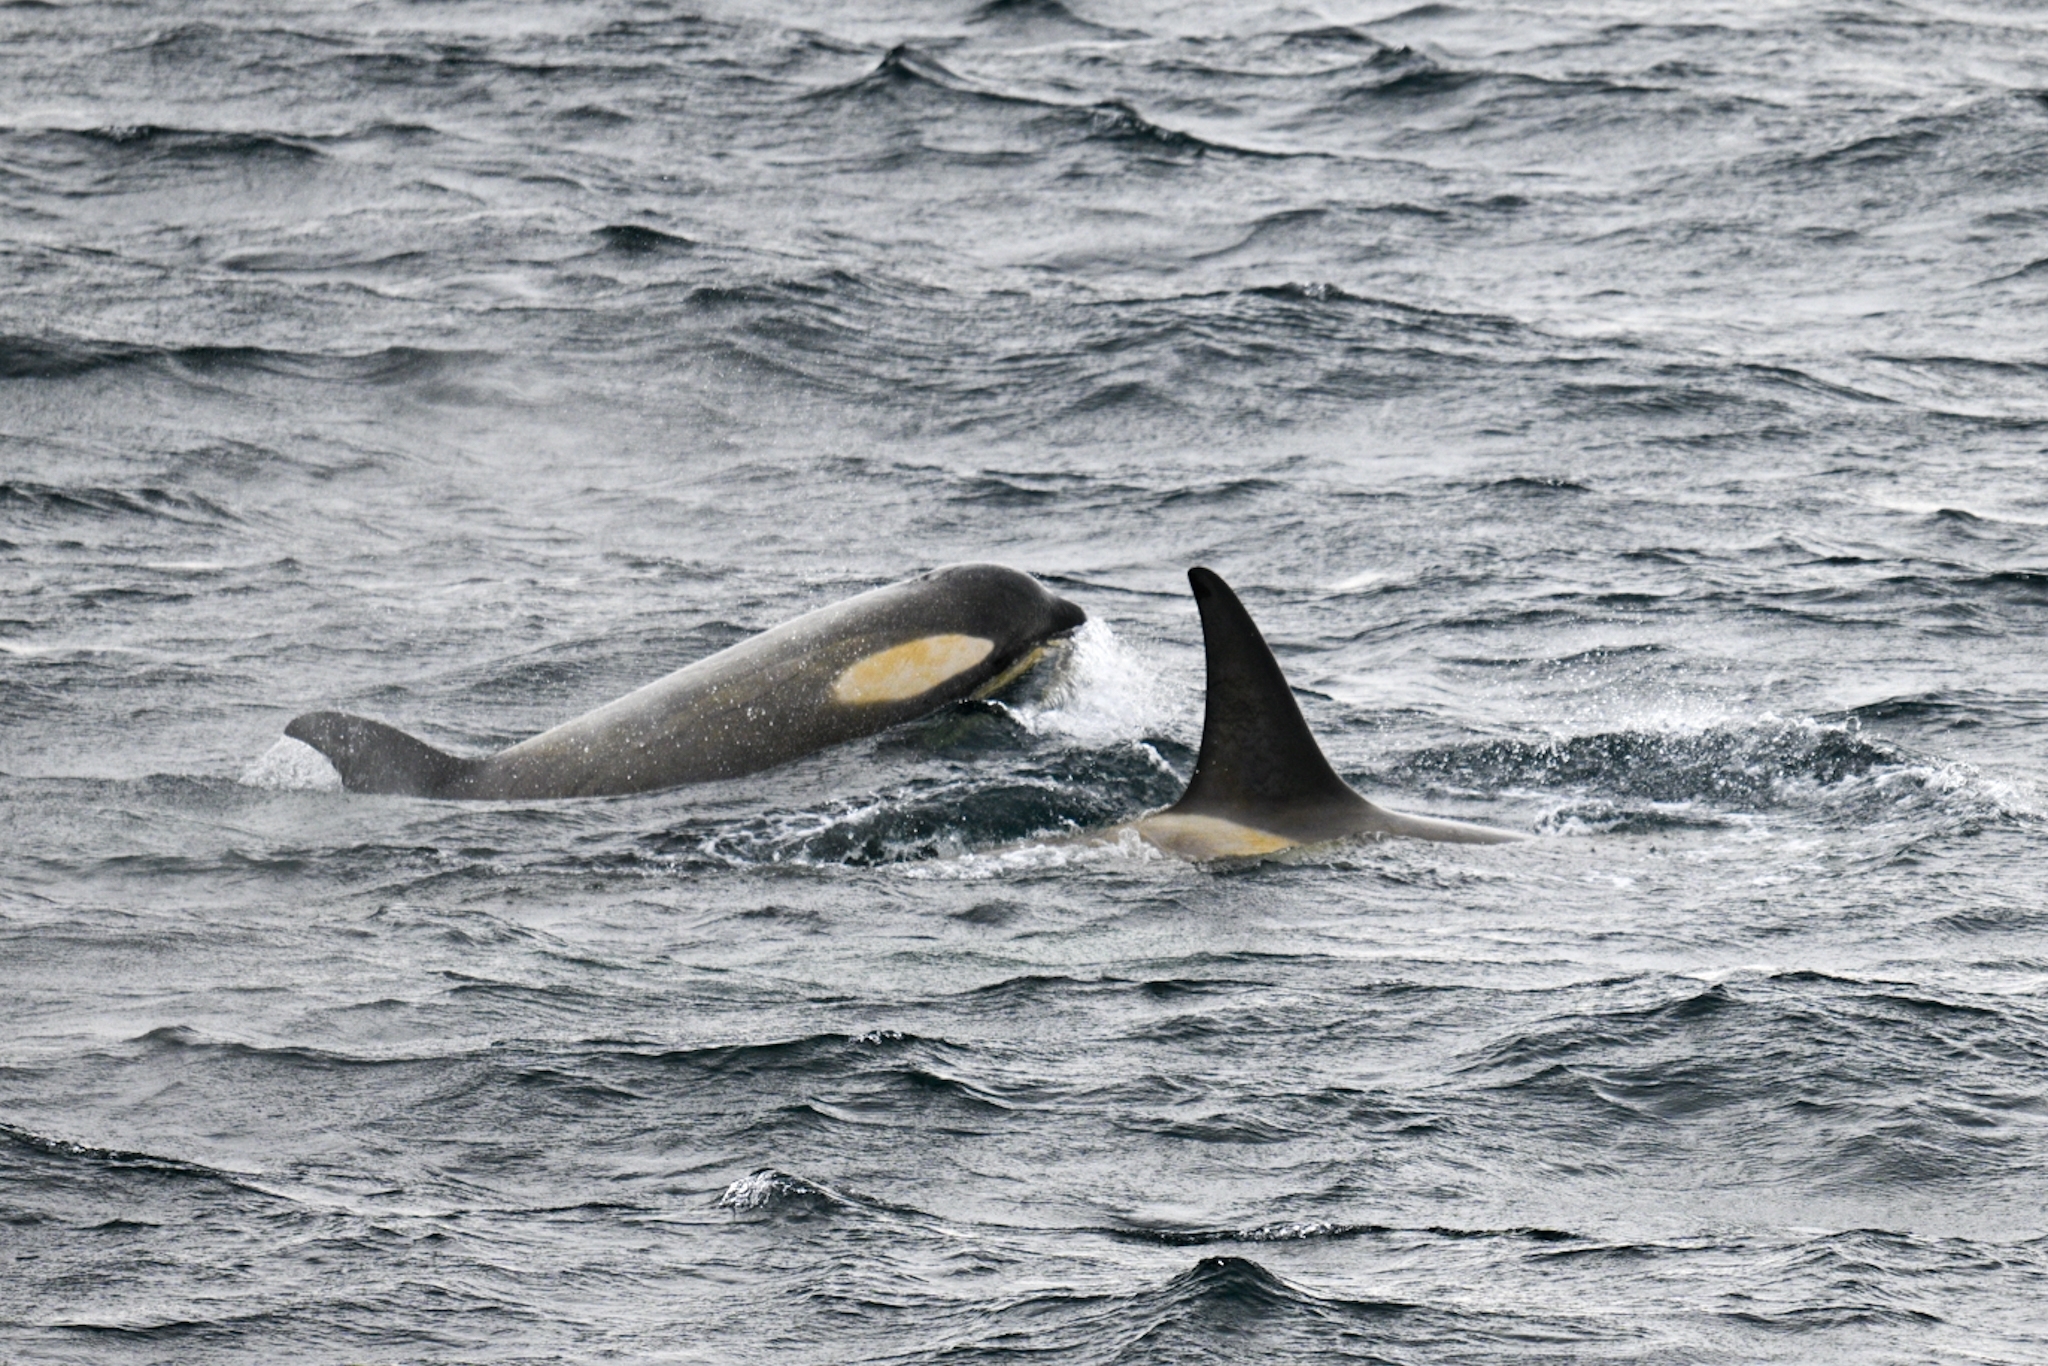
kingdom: Animalia
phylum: Chordata
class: Mammalia
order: Cetacea
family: Delphinidae
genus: Orcinus
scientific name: Orcinus orca
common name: Killer whale
